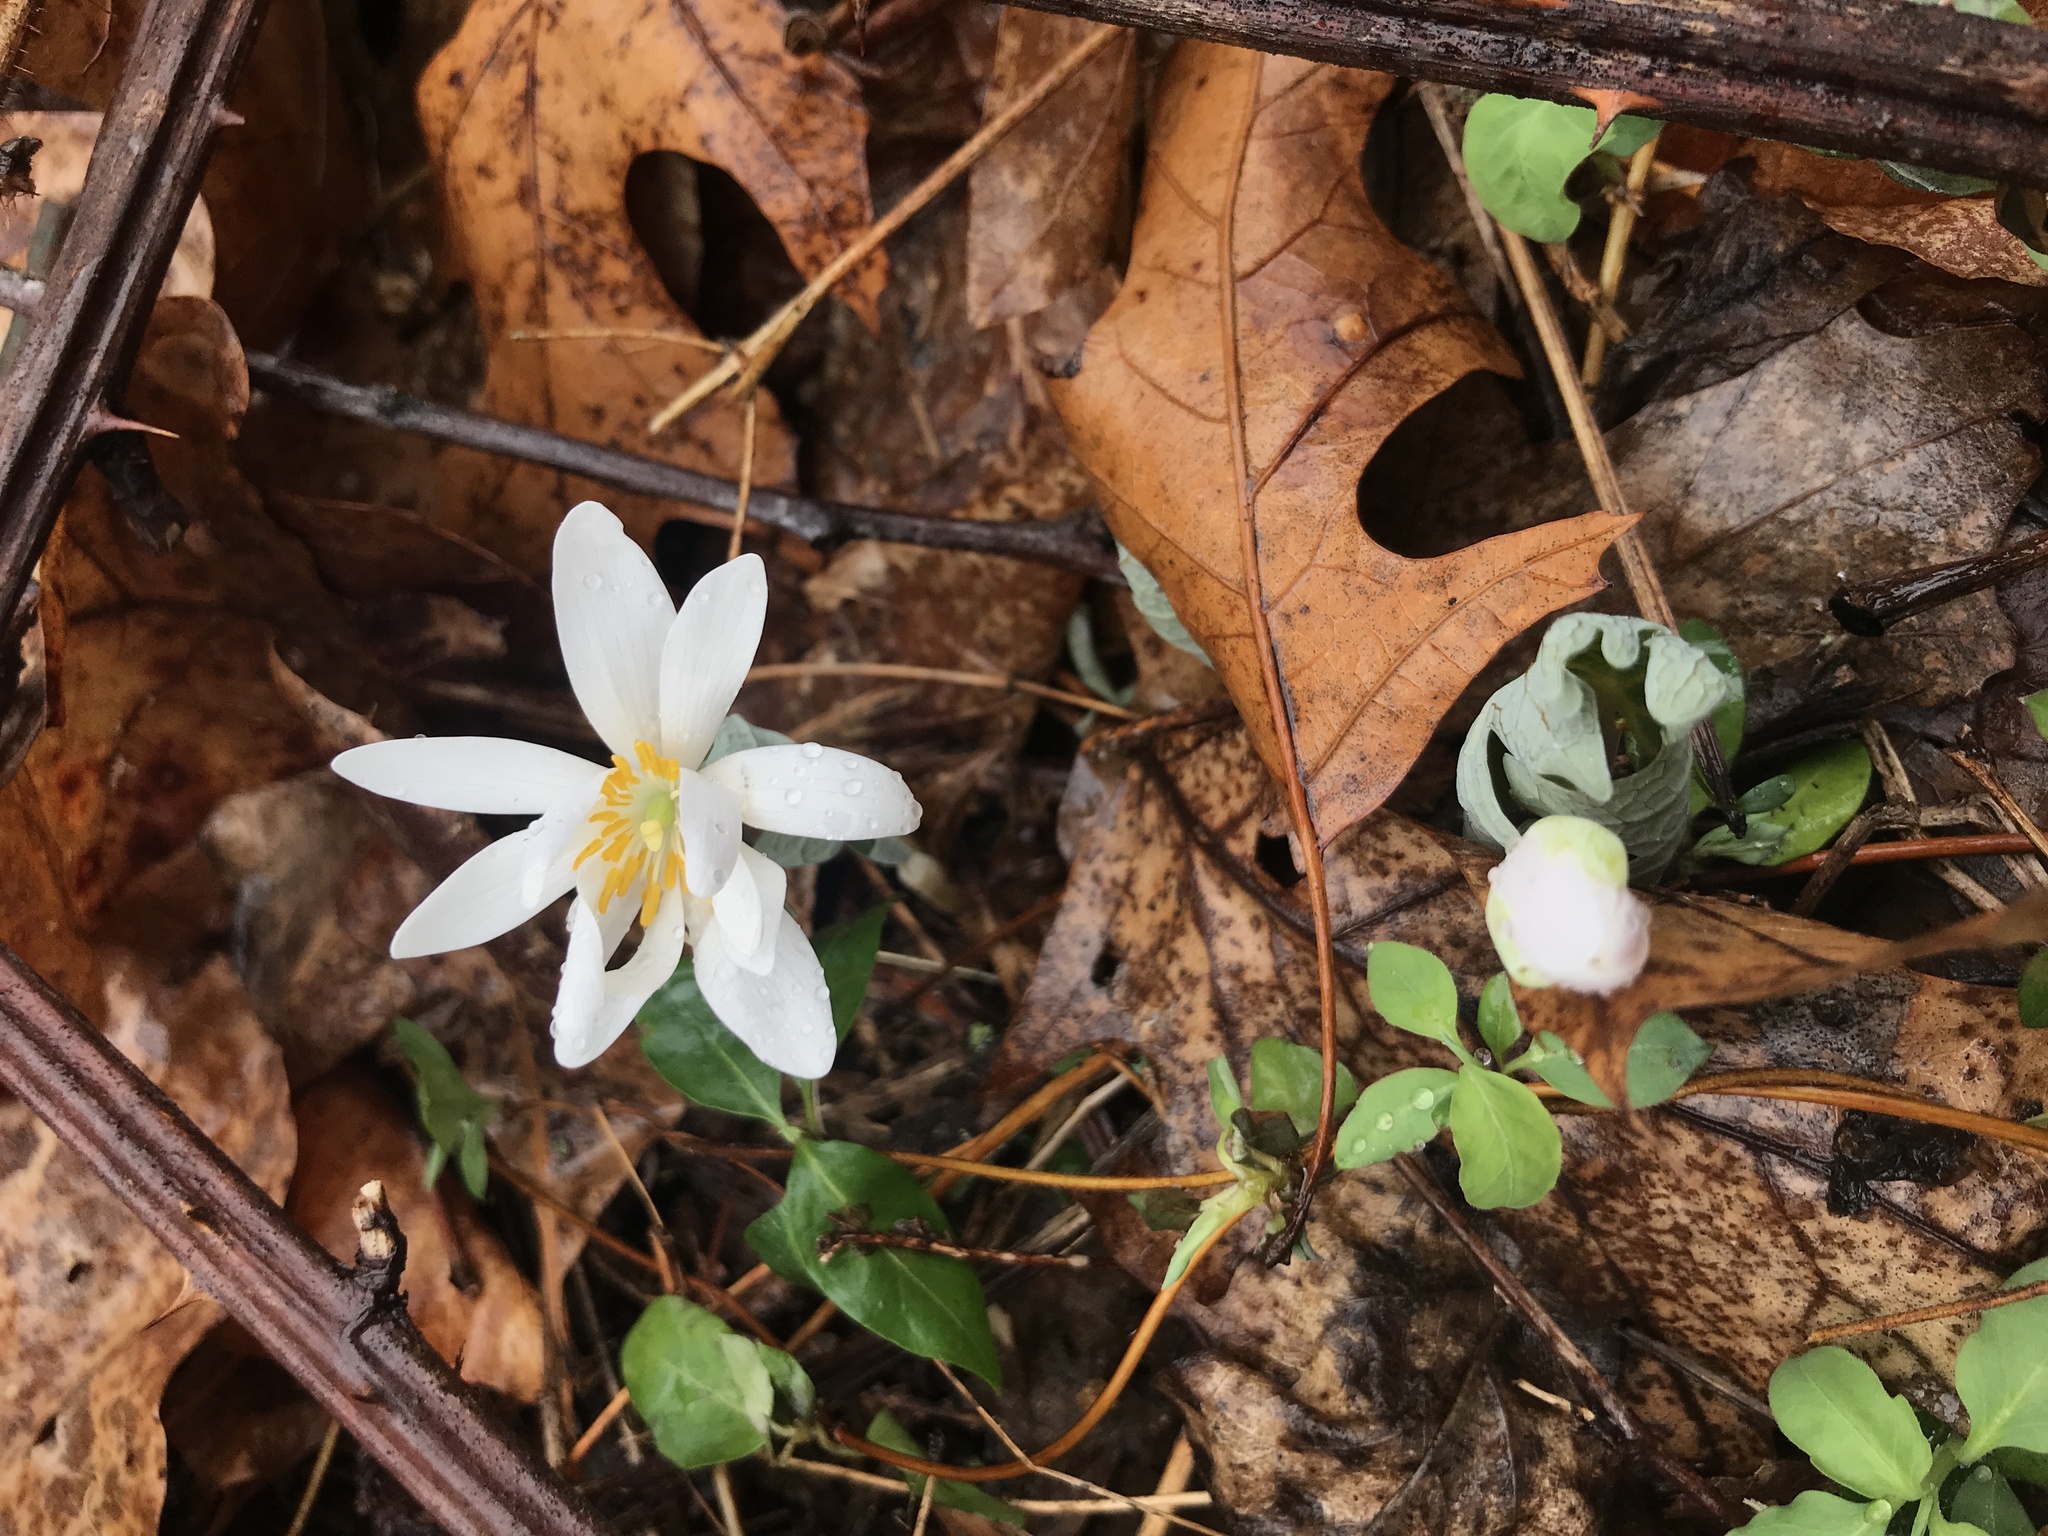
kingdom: Plantae
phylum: Tracheophyta
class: Magnoliopsida
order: Ranunculales
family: Papaveraceae
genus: Sanguinaria
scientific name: Sanguinaria canadensis
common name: Bloodroot
